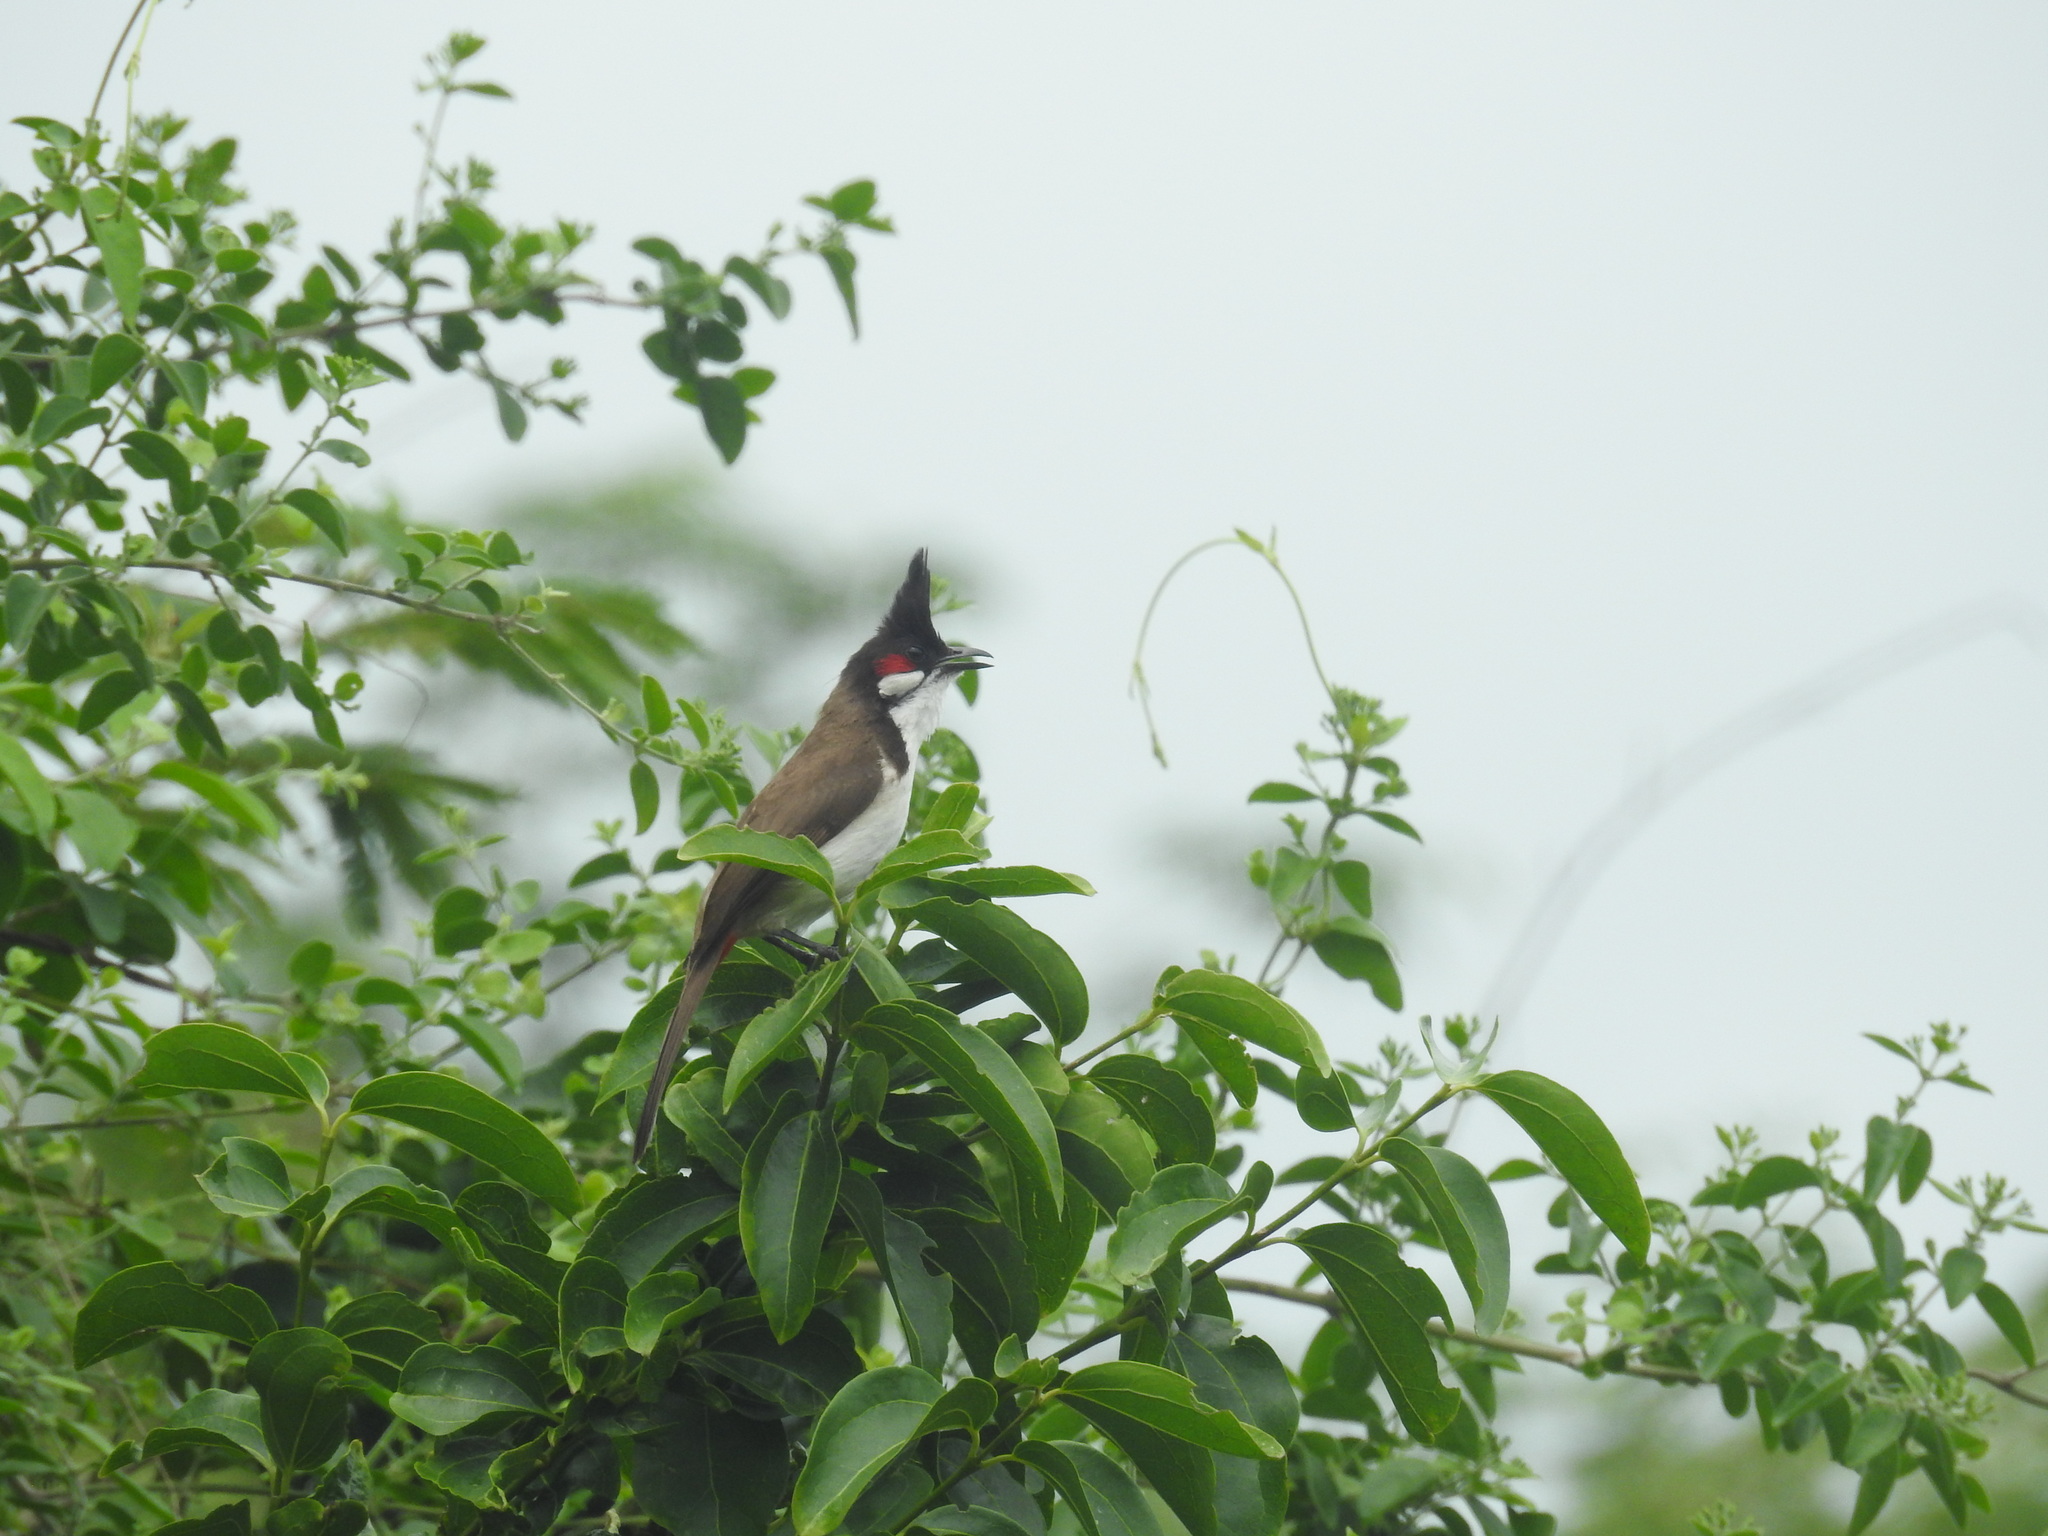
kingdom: Animalia
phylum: Chordata
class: Aves
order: Passeriformes
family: Pycnonotidae
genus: Pycnonotus
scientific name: Pycnonotus jocosus
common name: Red-whiskered bulbul
